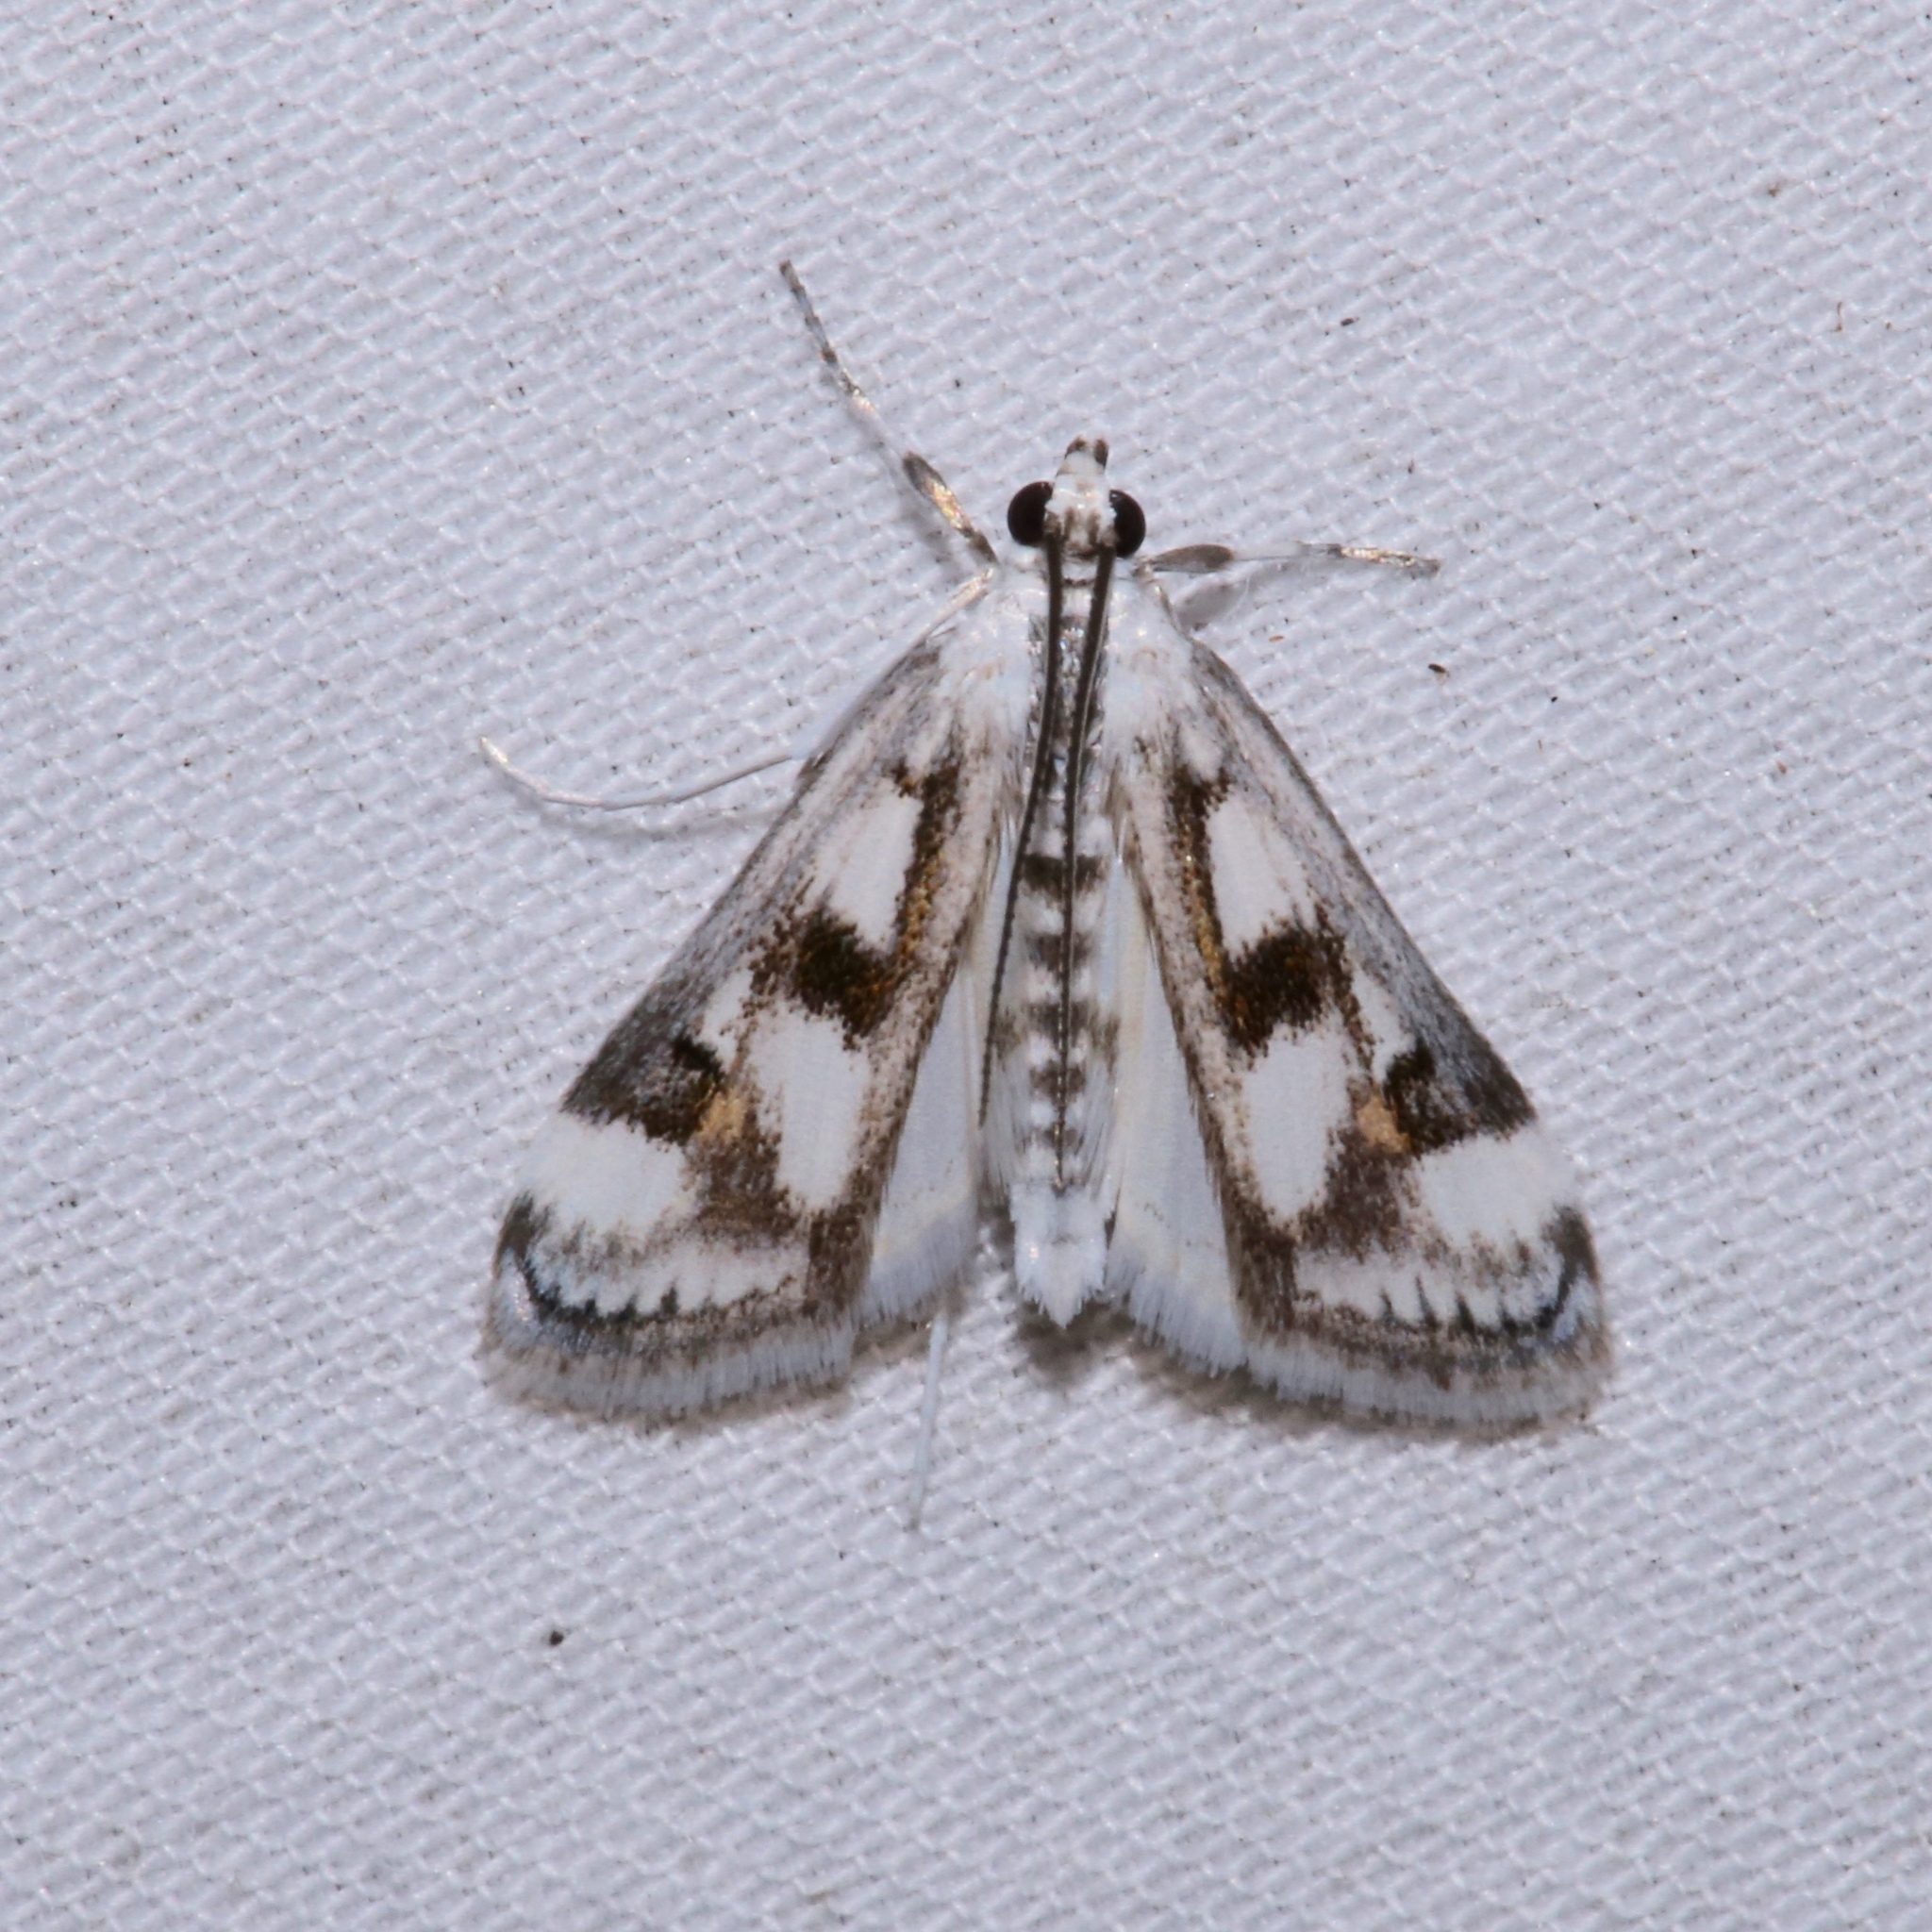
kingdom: Animalia
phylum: Arthropoda
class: Insecta
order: Lepidoptera
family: Crambidae
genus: Parapoynx
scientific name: Parapoynx maculalis
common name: Polymorphic pondweed moth
